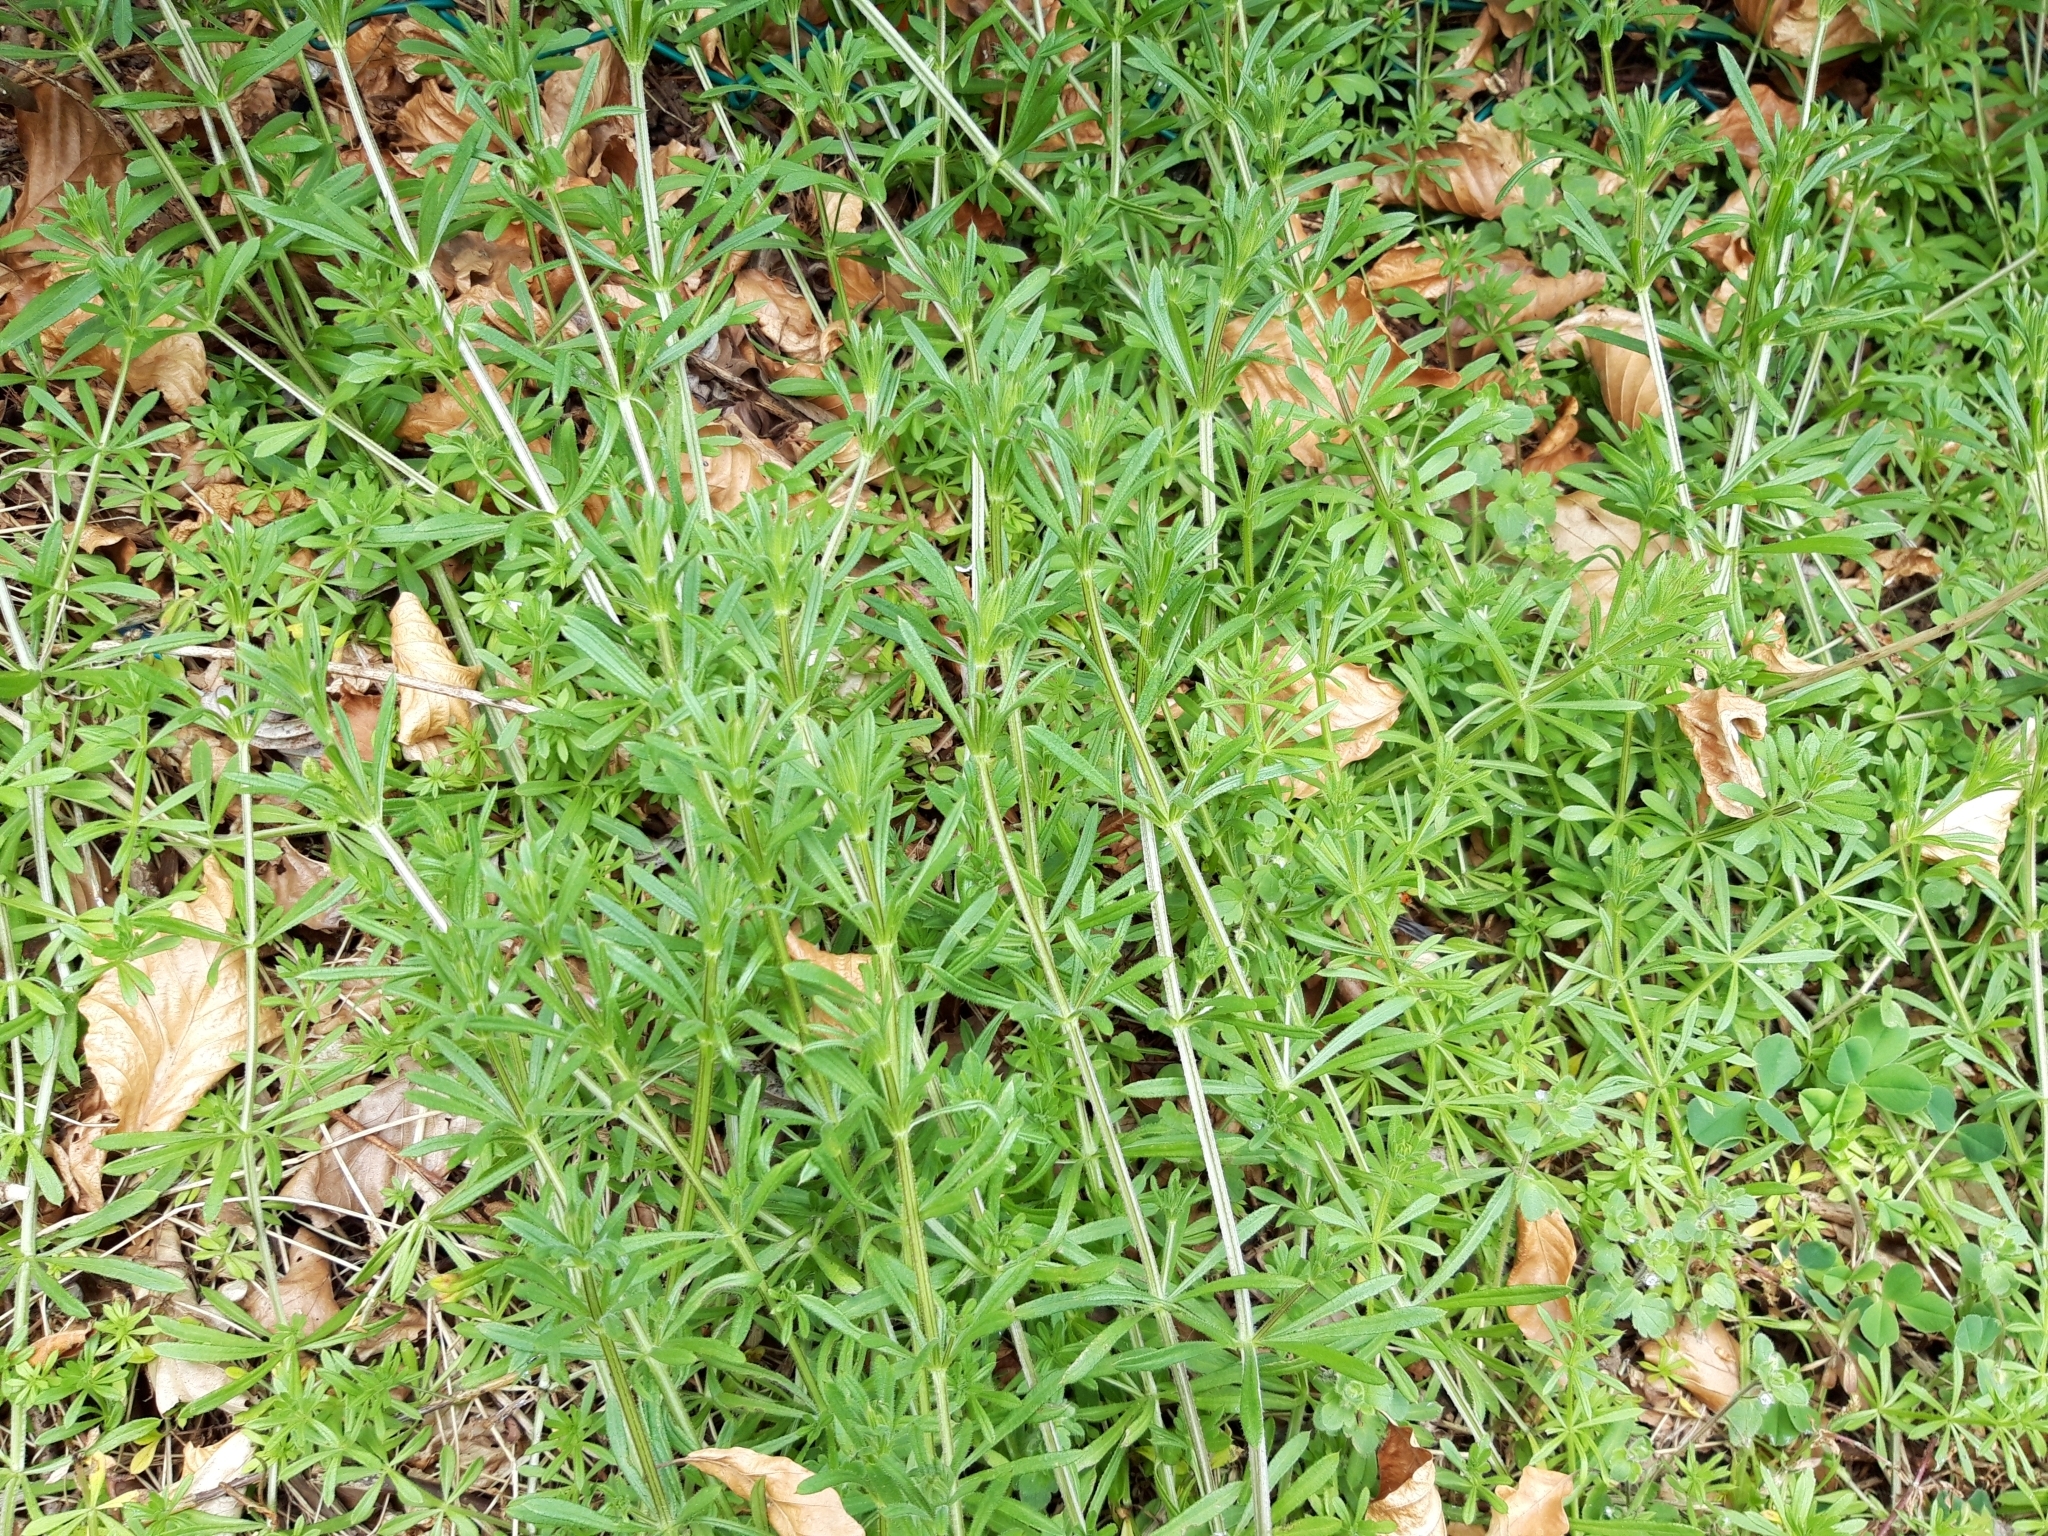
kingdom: Plantae
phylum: Tracheophyta
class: Magnoliopsida
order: Gentianales
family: Rubiaceae
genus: Galium
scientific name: Galium aparine
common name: Cleavers
